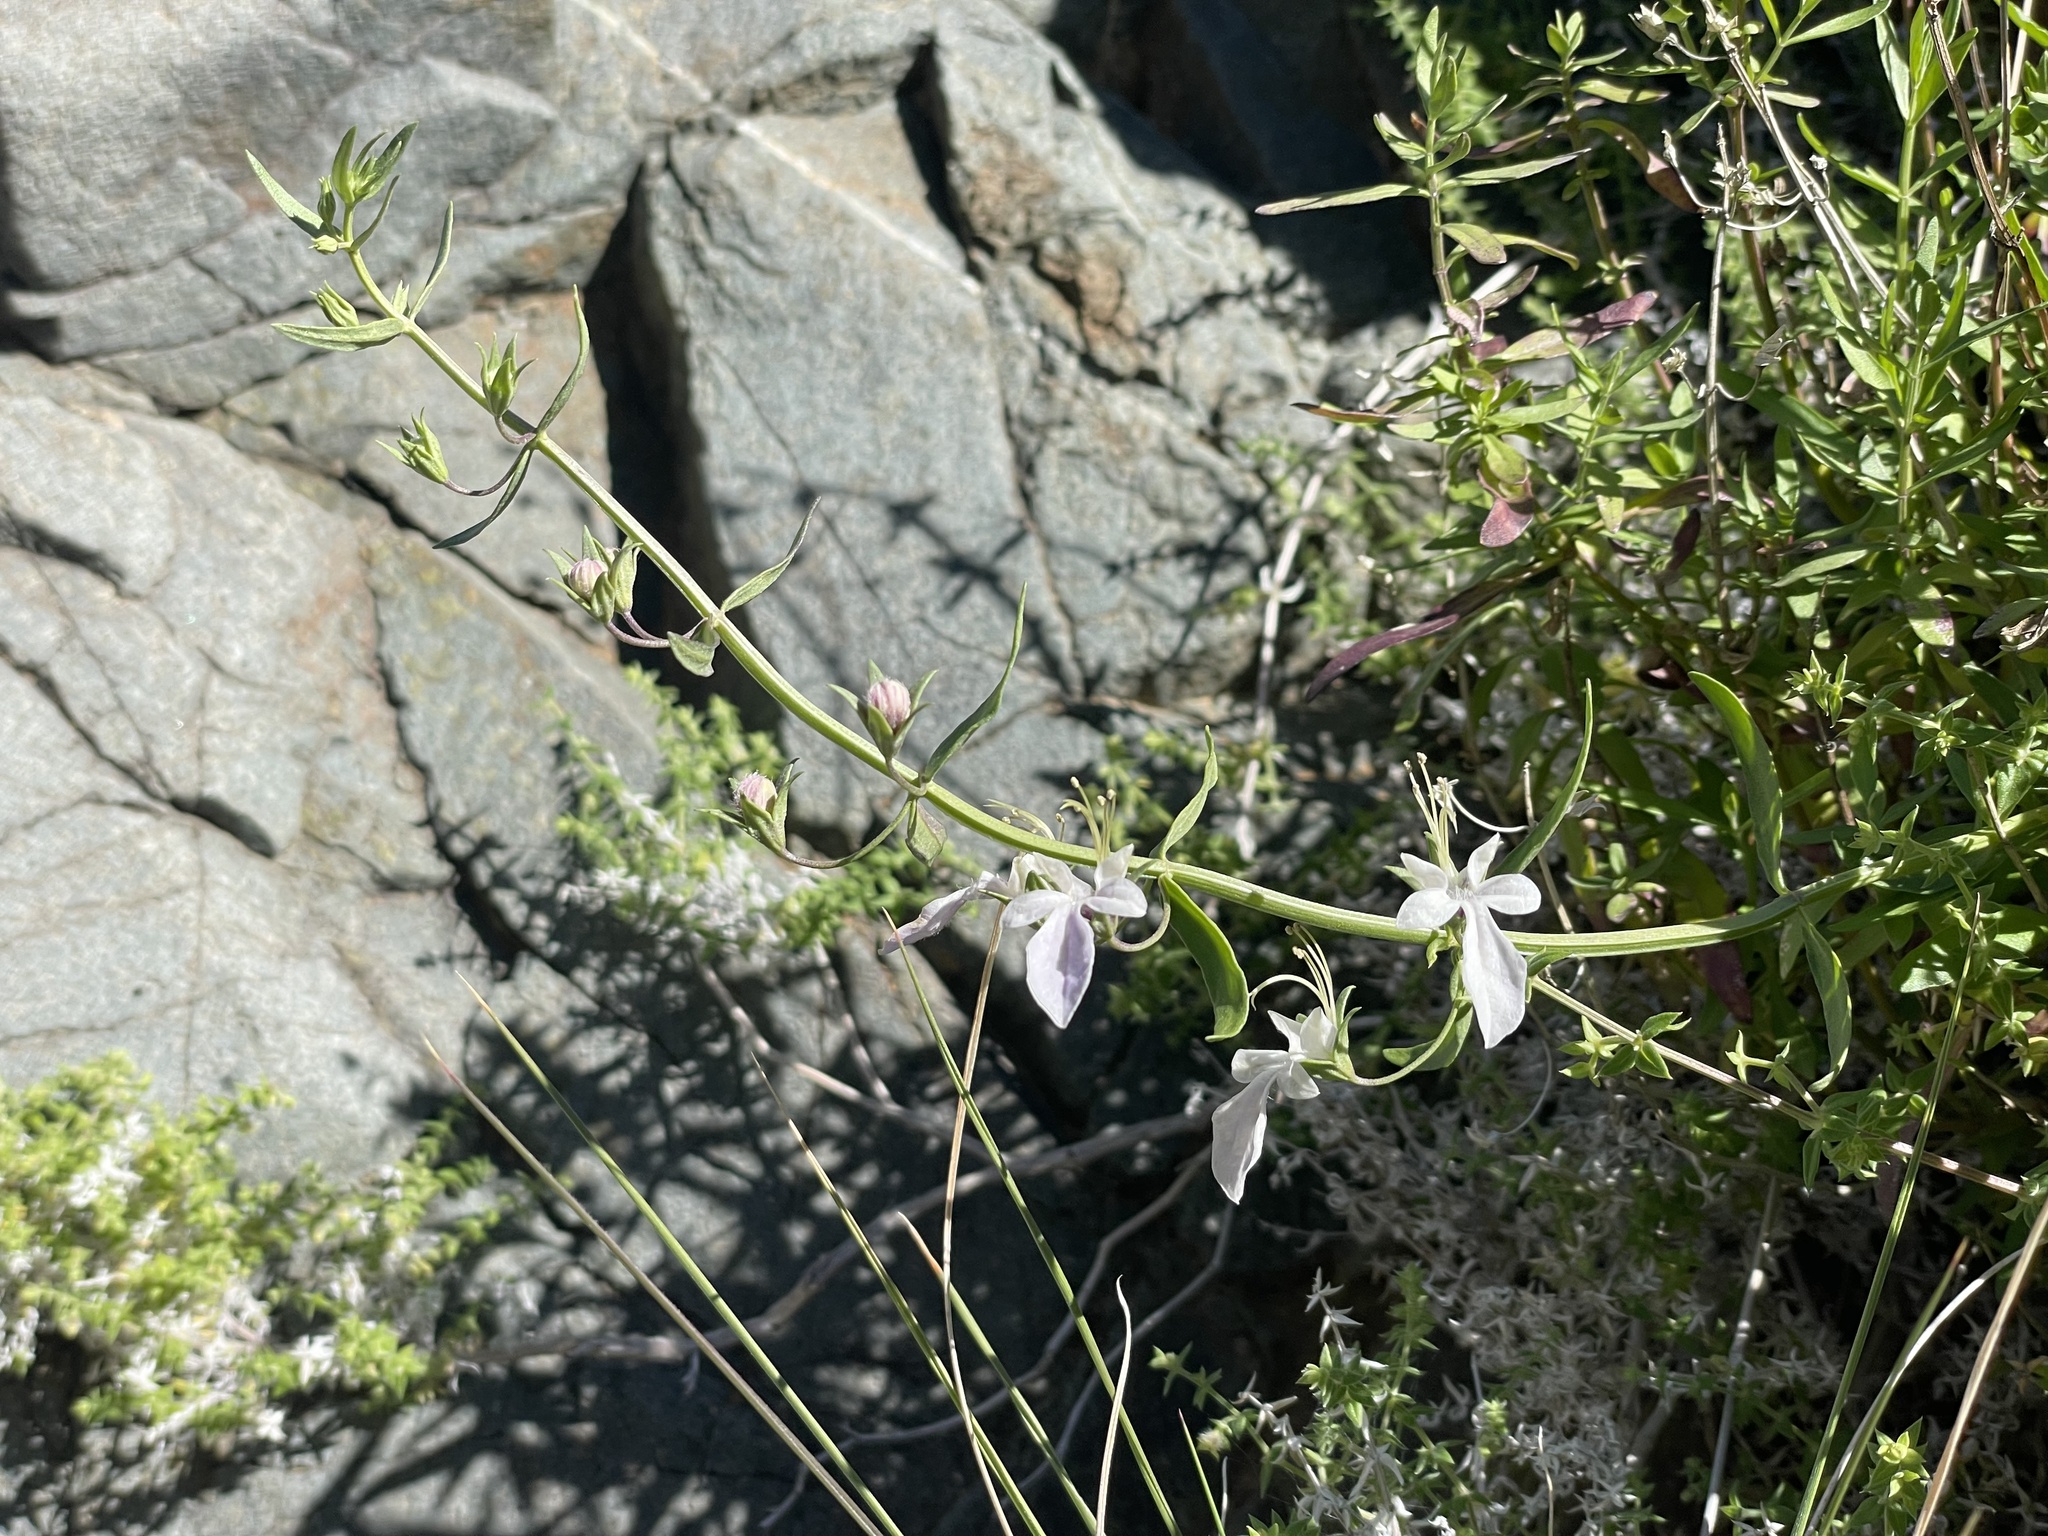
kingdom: Plantae
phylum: Tracheophyta
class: Magnoliopsida
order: Lamiales
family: Lamiaceae
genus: Teucrium
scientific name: Teucrium glandulosum
